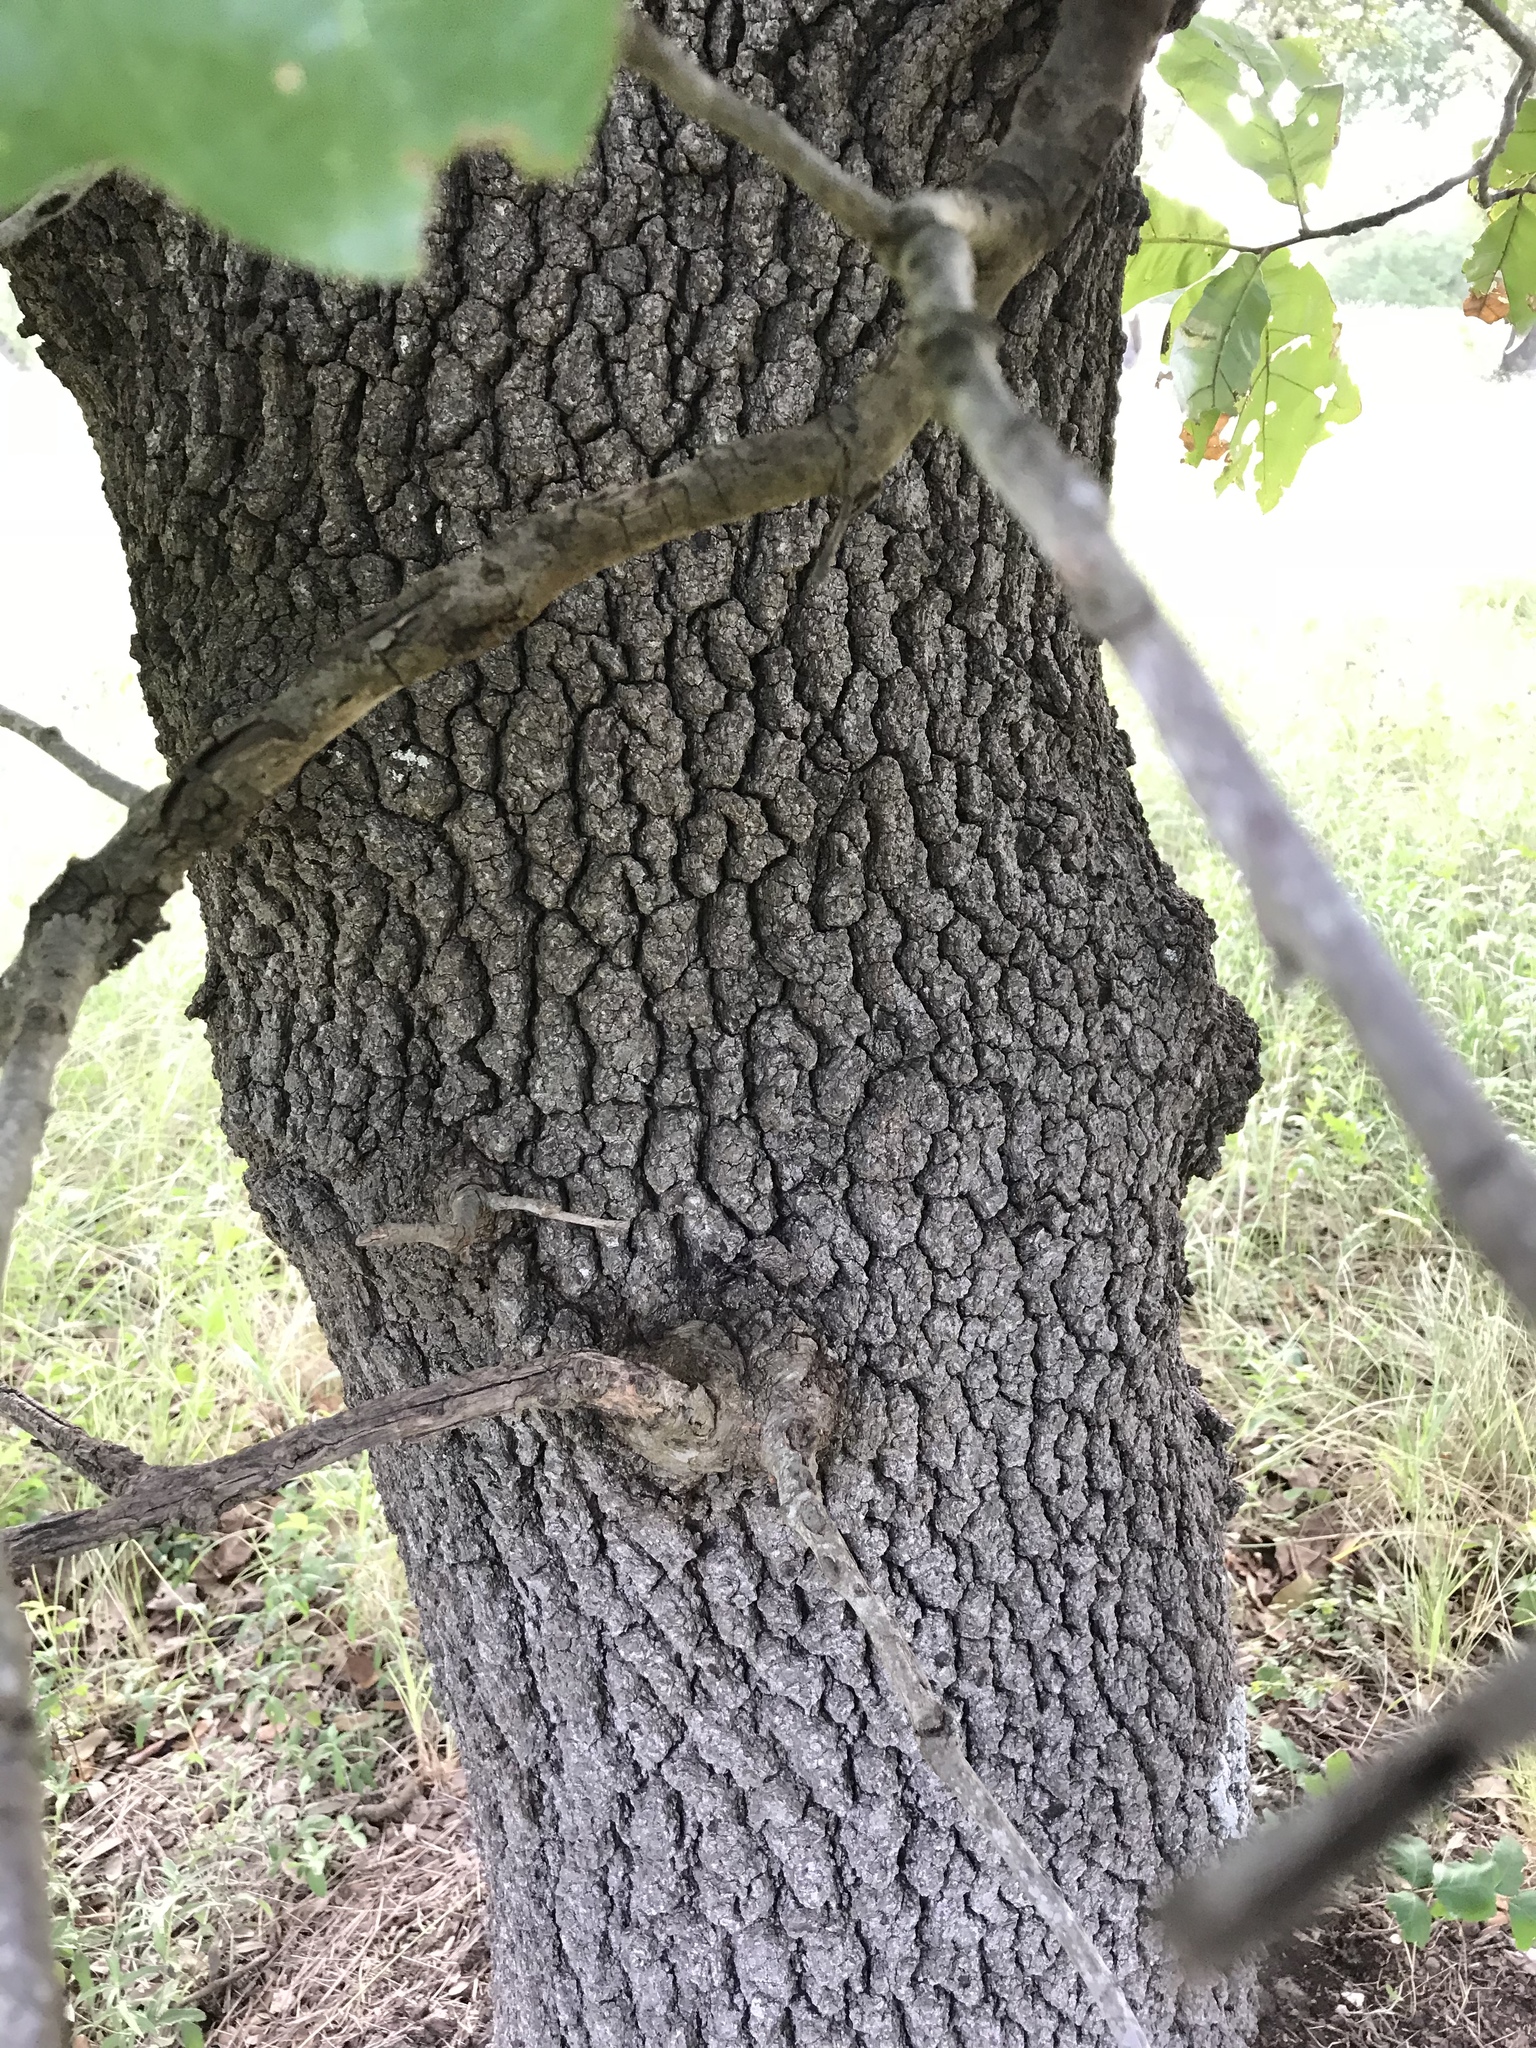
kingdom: Plantae
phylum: Tracheophyta
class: Magnoliopsida
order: Fagales
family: Fagaceae
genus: Quercus
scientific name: Quercus marilandica
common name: Blackjack oak
